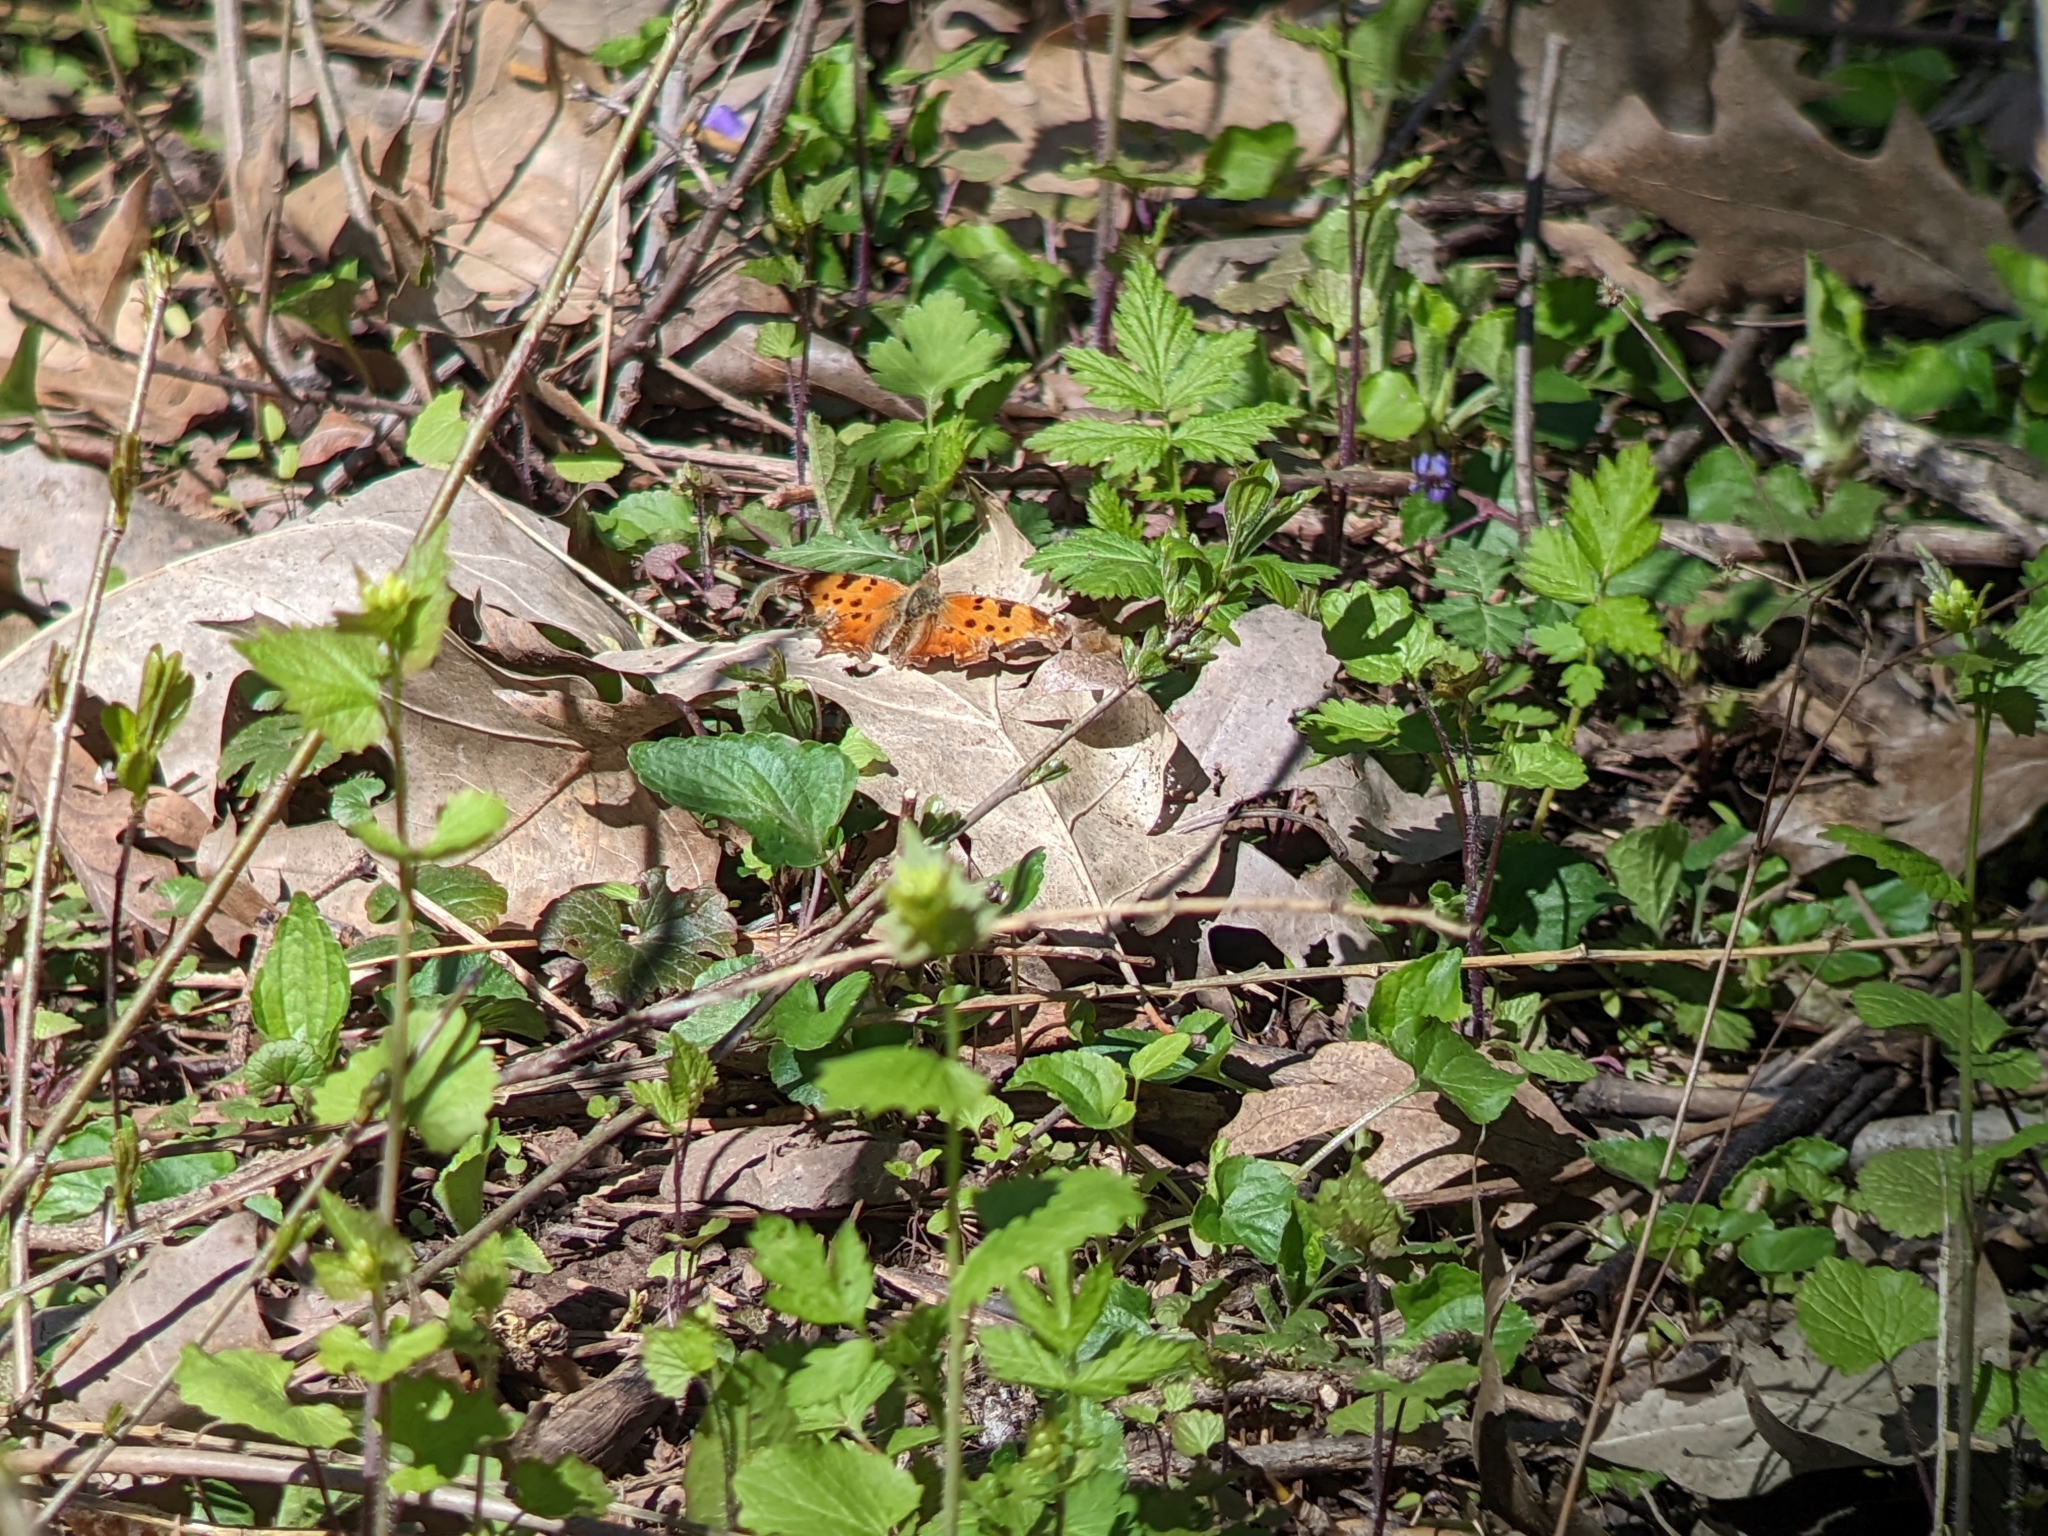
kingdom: Animalia
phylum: Arthropoda
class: Insecta
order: Lepidoptera
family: Nymphalidae
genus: Polygonia
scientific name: Polygonia comma
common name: Eastern comma
